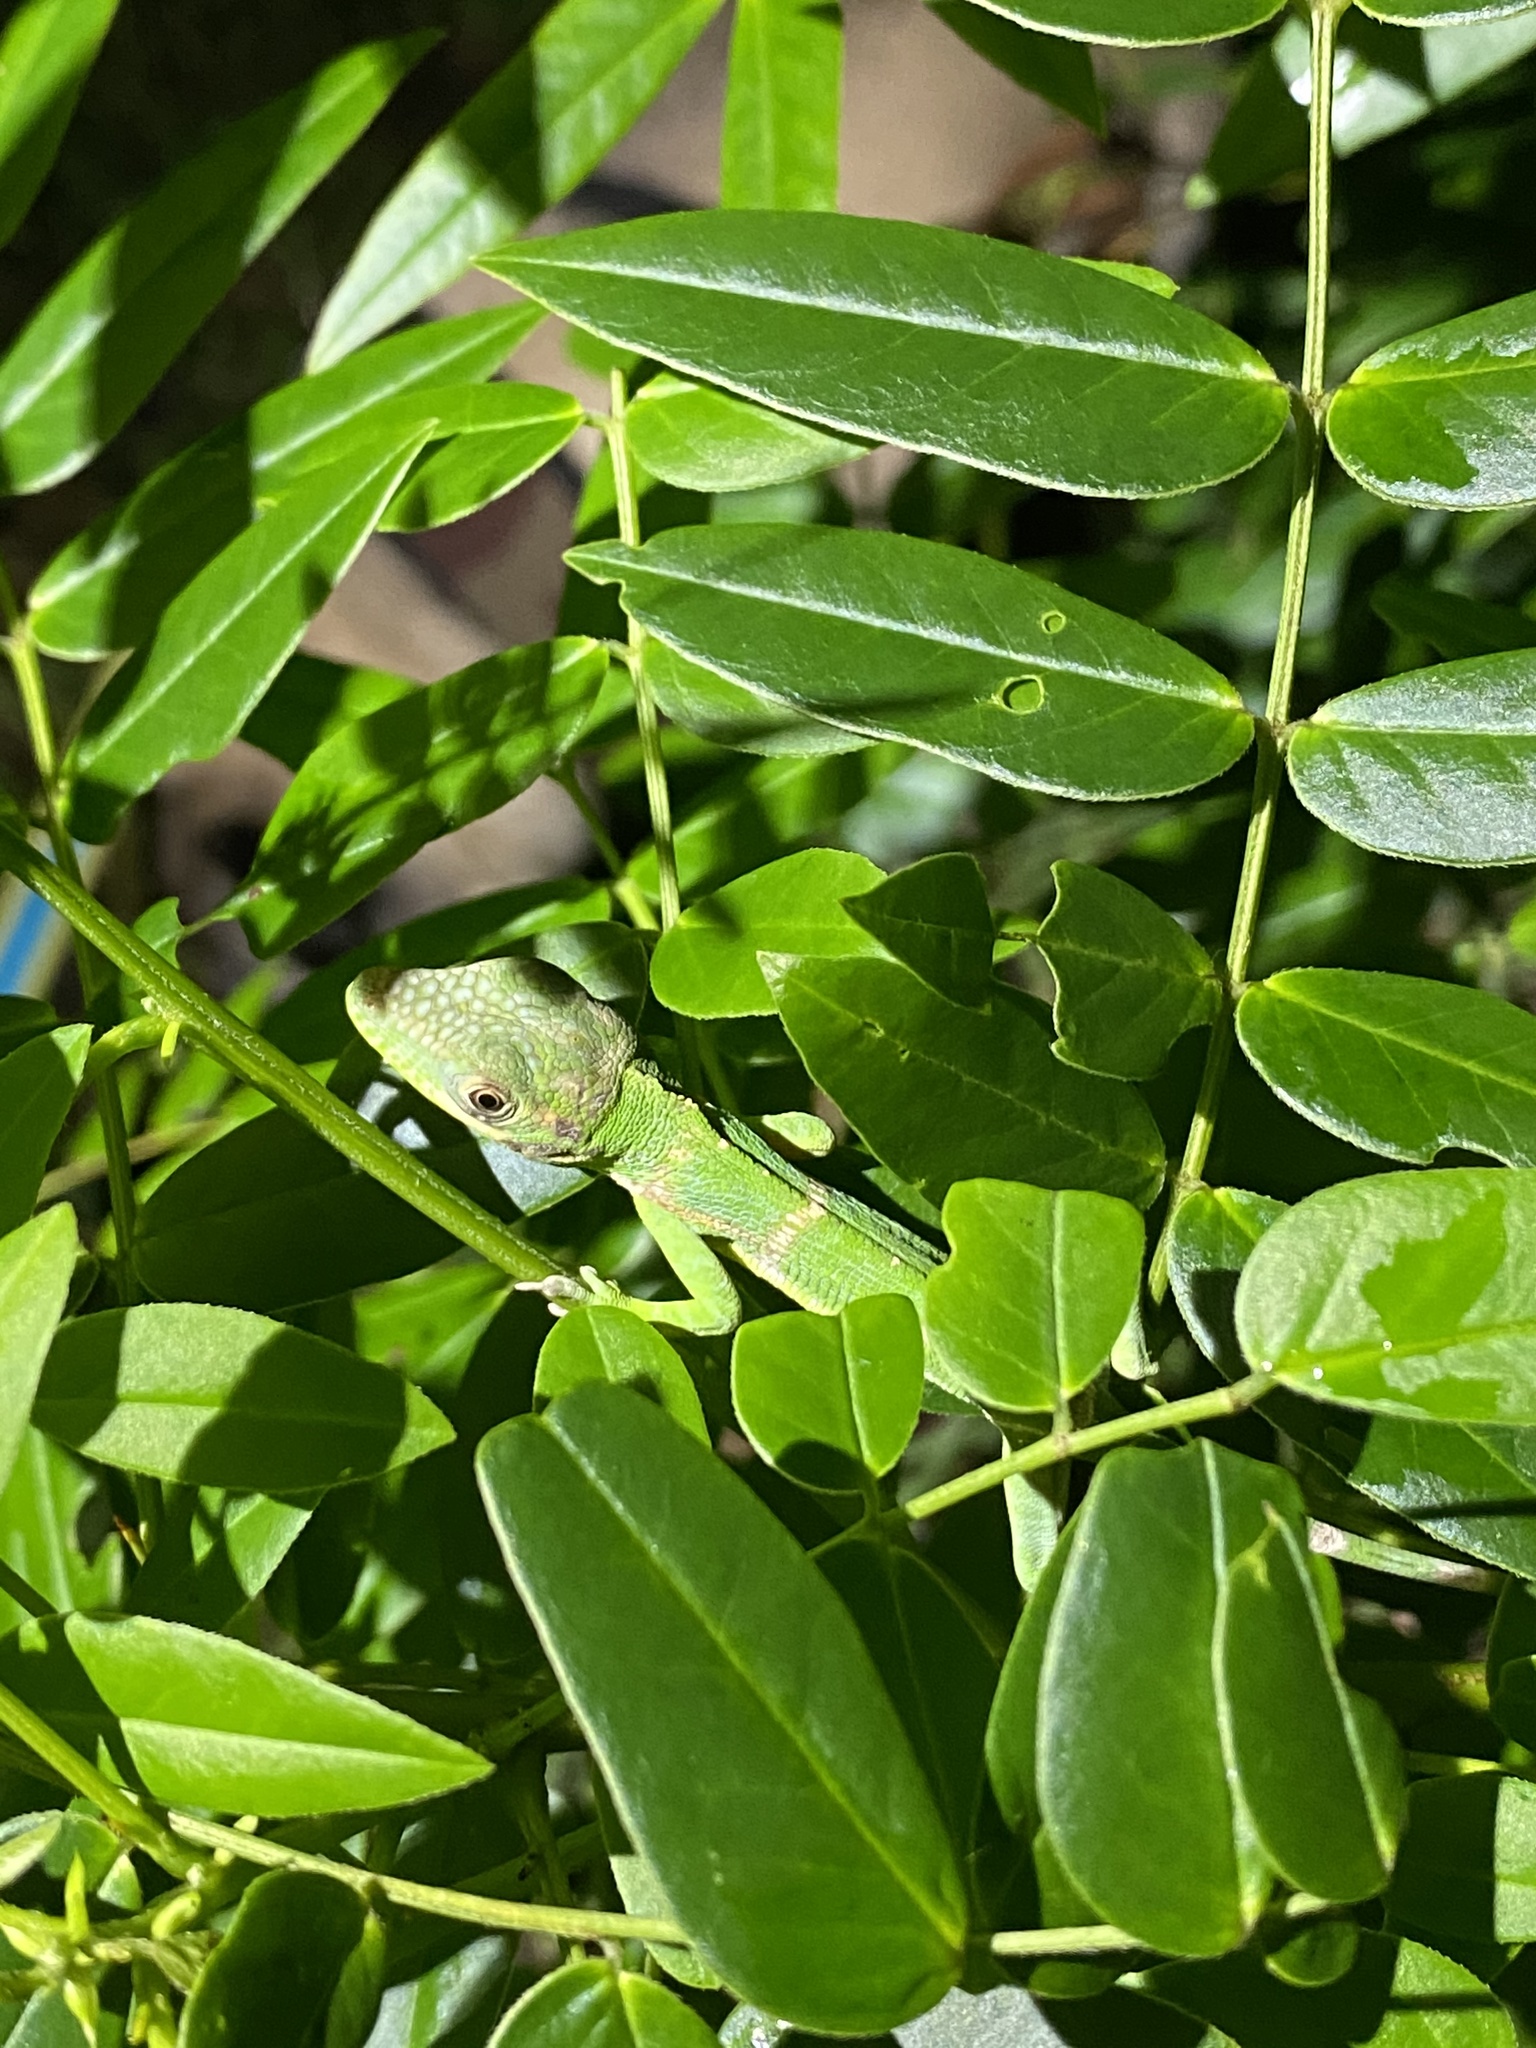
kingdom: Animalia
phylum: Chordata
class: Squamata
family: Dactyloidae
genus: Anolis
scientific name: Anolis equestris
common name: Knight anole
